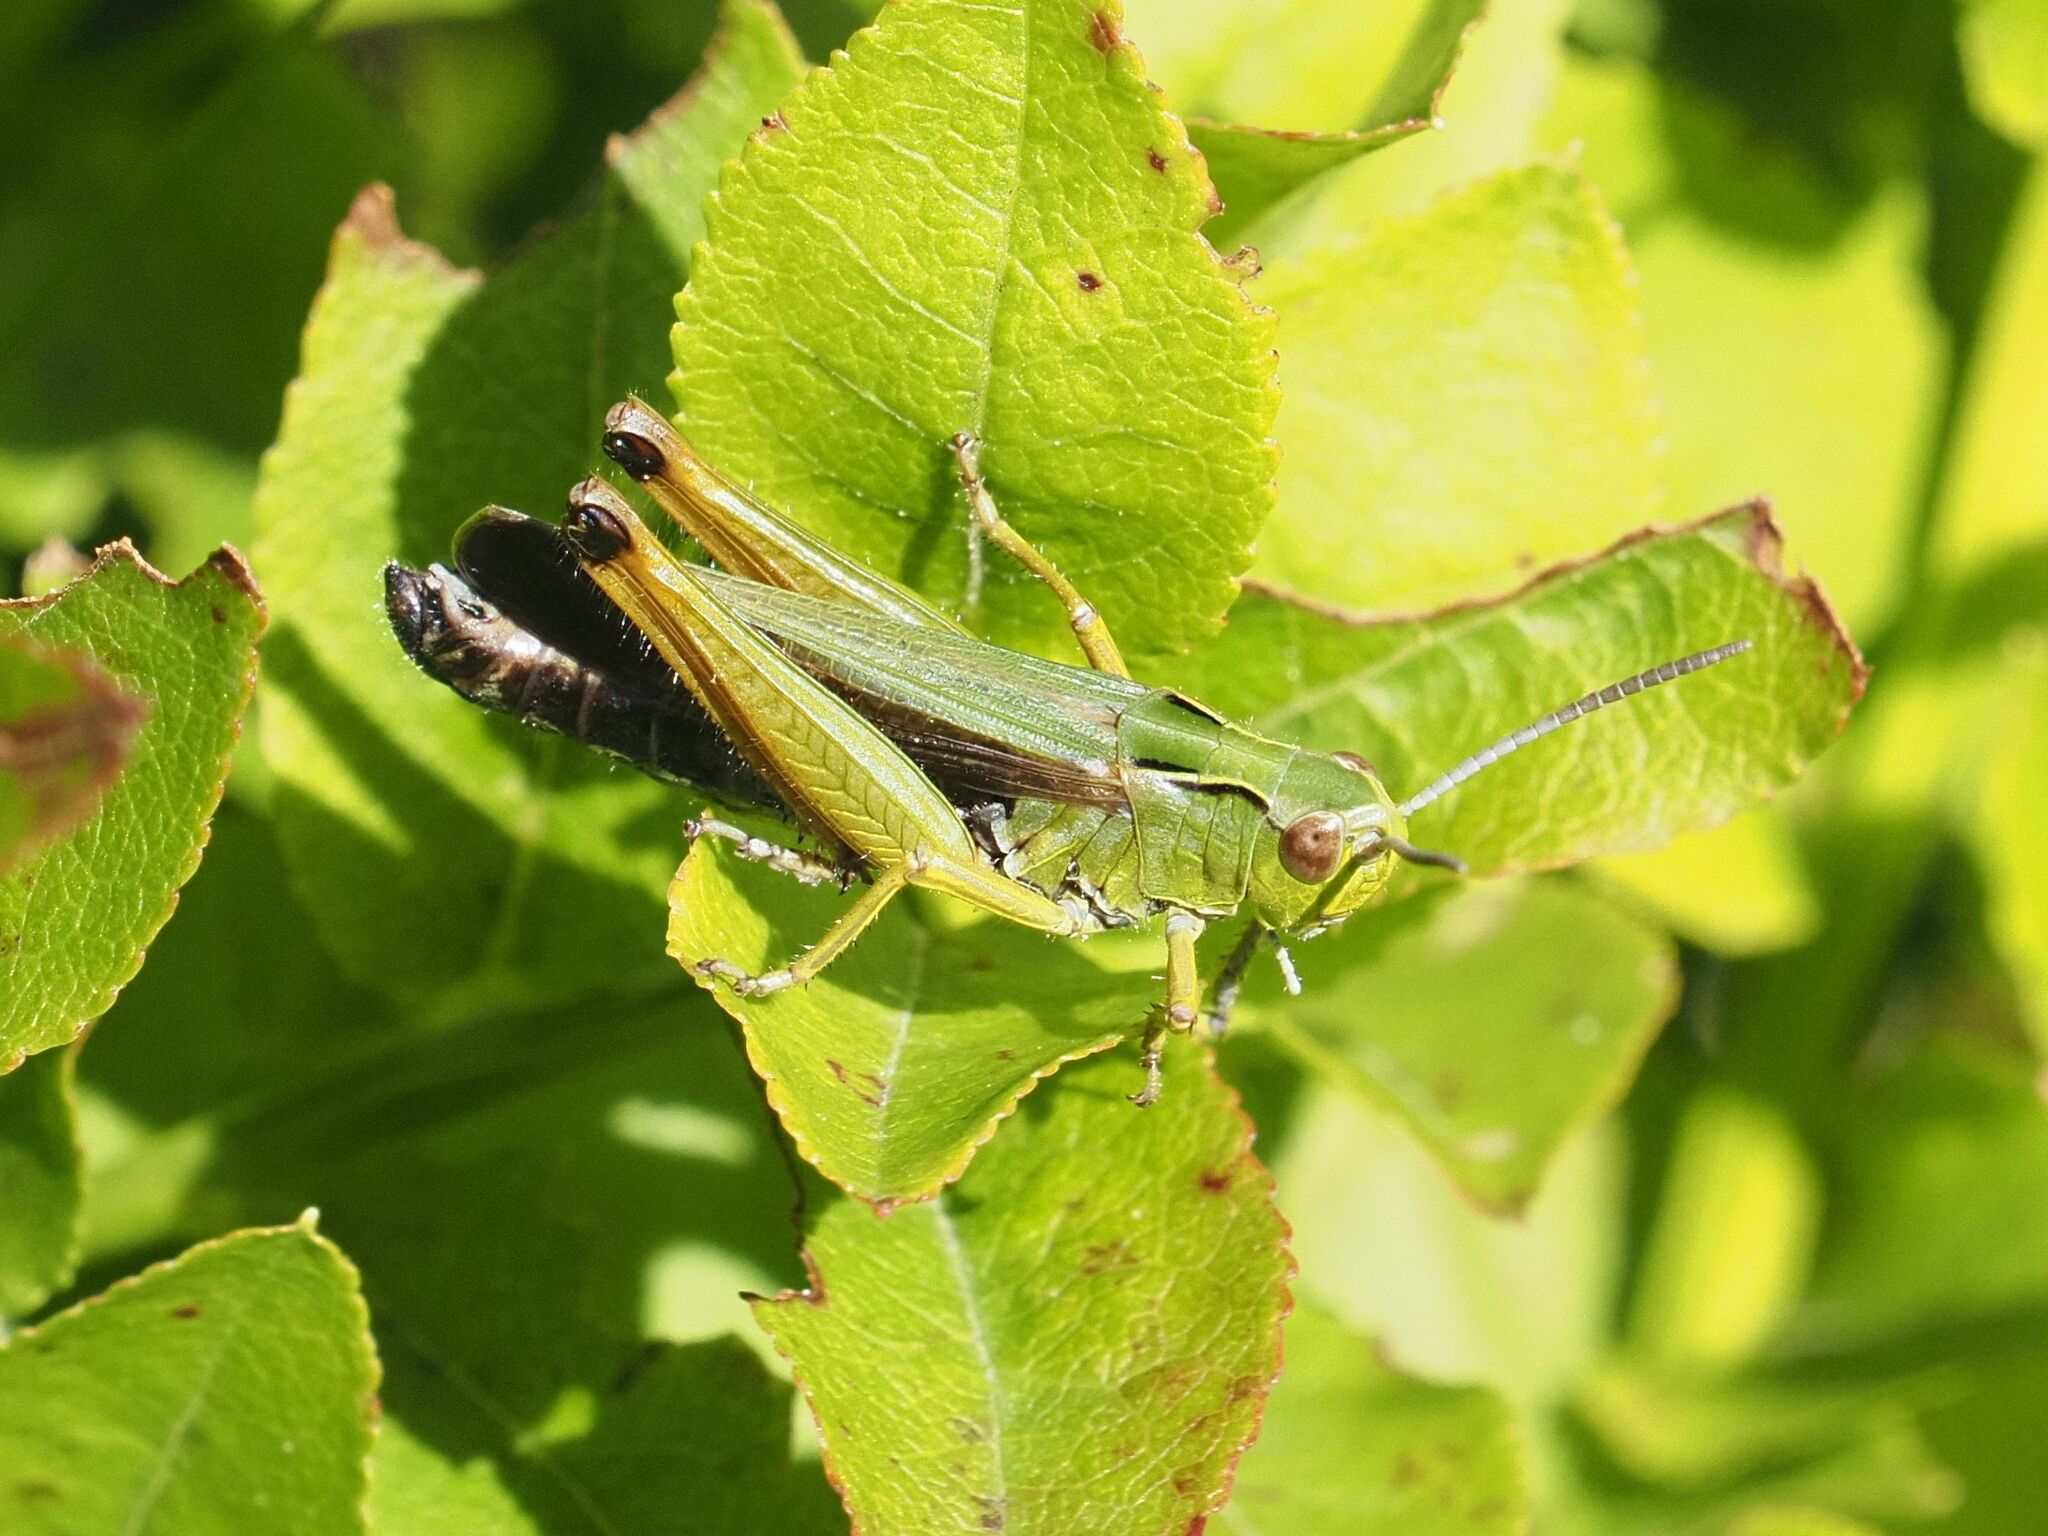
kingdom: Animalia
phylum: Arthropoda
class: Insecta
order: Orthoptera
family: Acrididae
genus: Omocestus
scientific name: Omocestus viridulus
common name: Common green grasshopper
